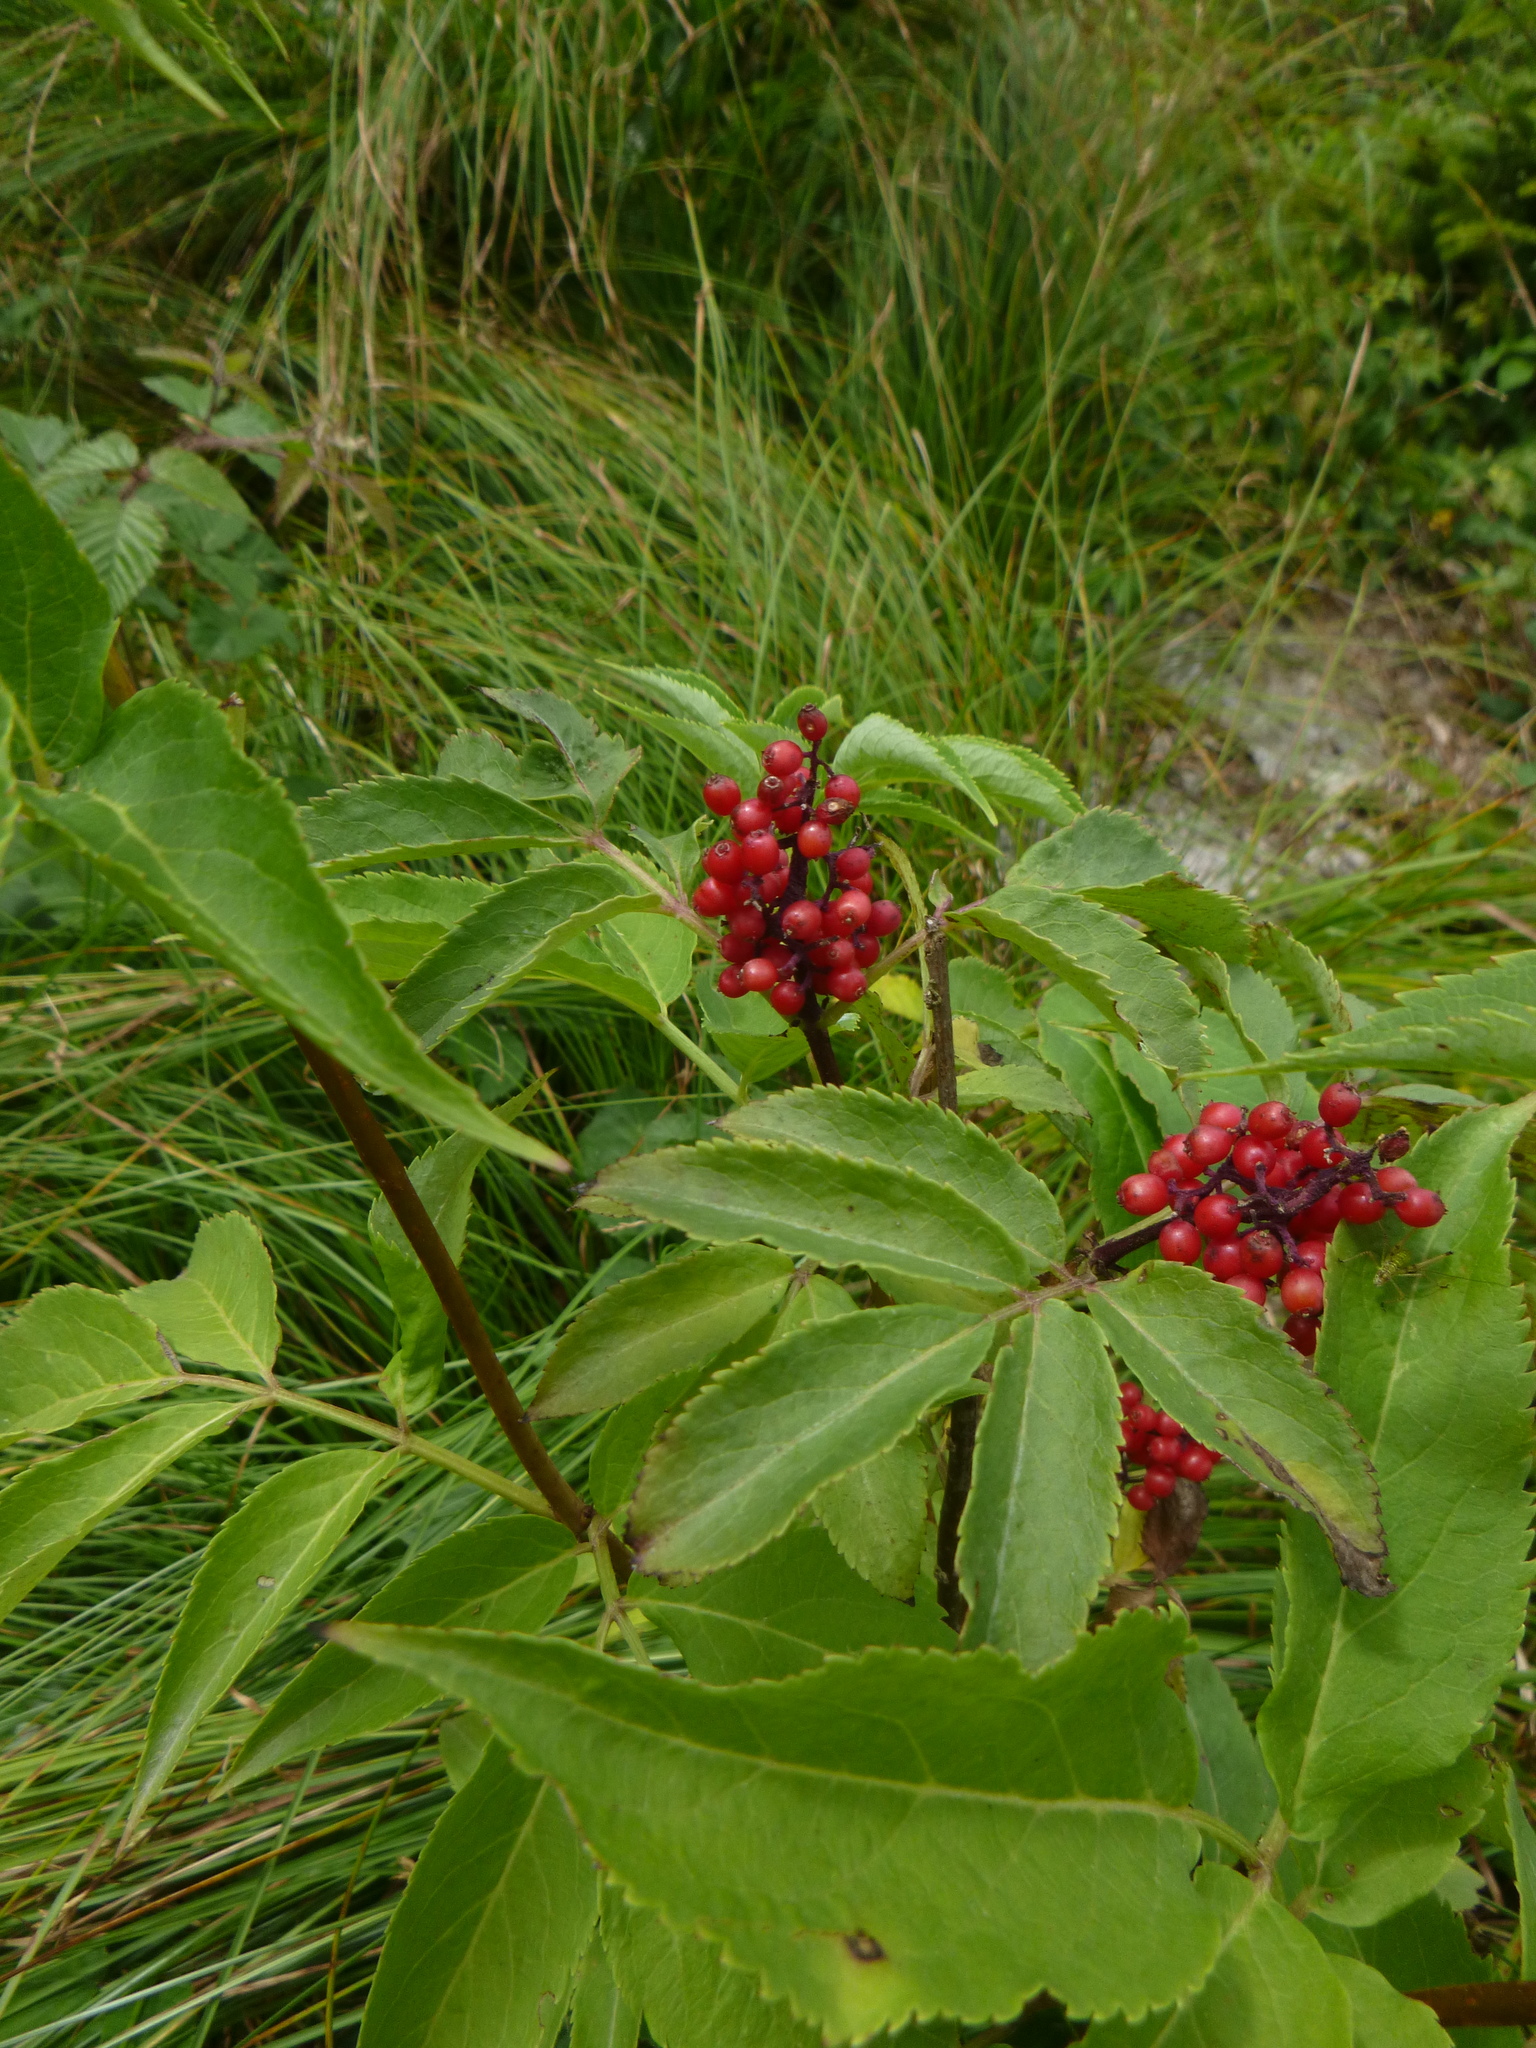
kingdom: Plantae
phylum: Tracheophyta
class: Magnoliopsida
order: Dipsacales
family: Viburnaceae
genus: Sambucus
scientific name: Sambucus racemosa
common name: Red-berried elder
